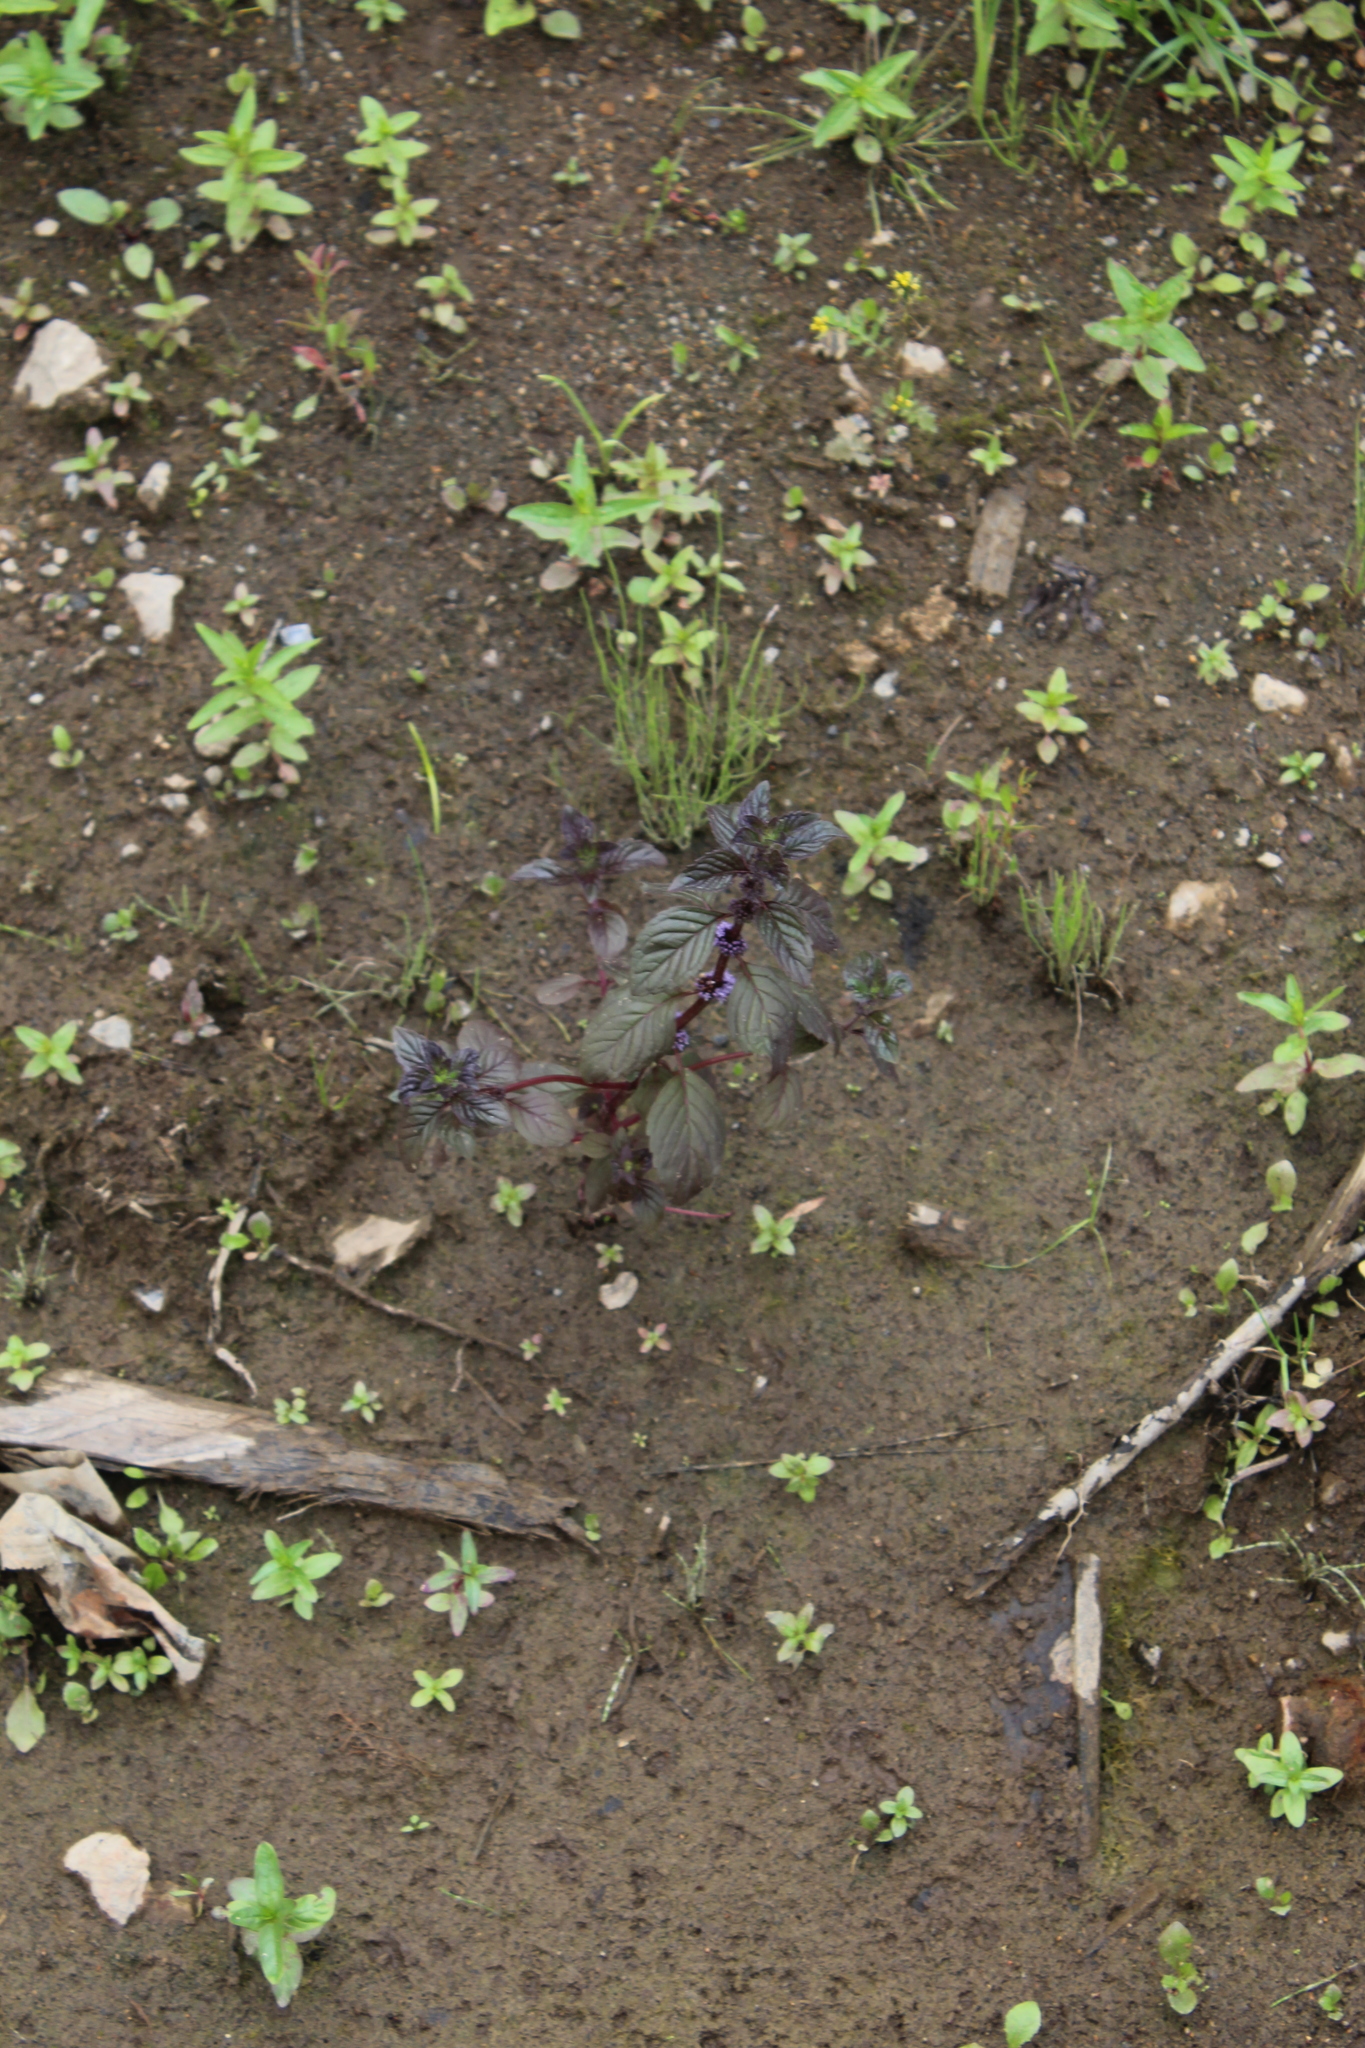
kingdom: Plantae
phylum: Tracheophyta
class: Magnoliopsida
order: Lamiales
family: Lamiaceae
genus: Mentha
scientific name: Mentha arvensis
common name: Corn mint
